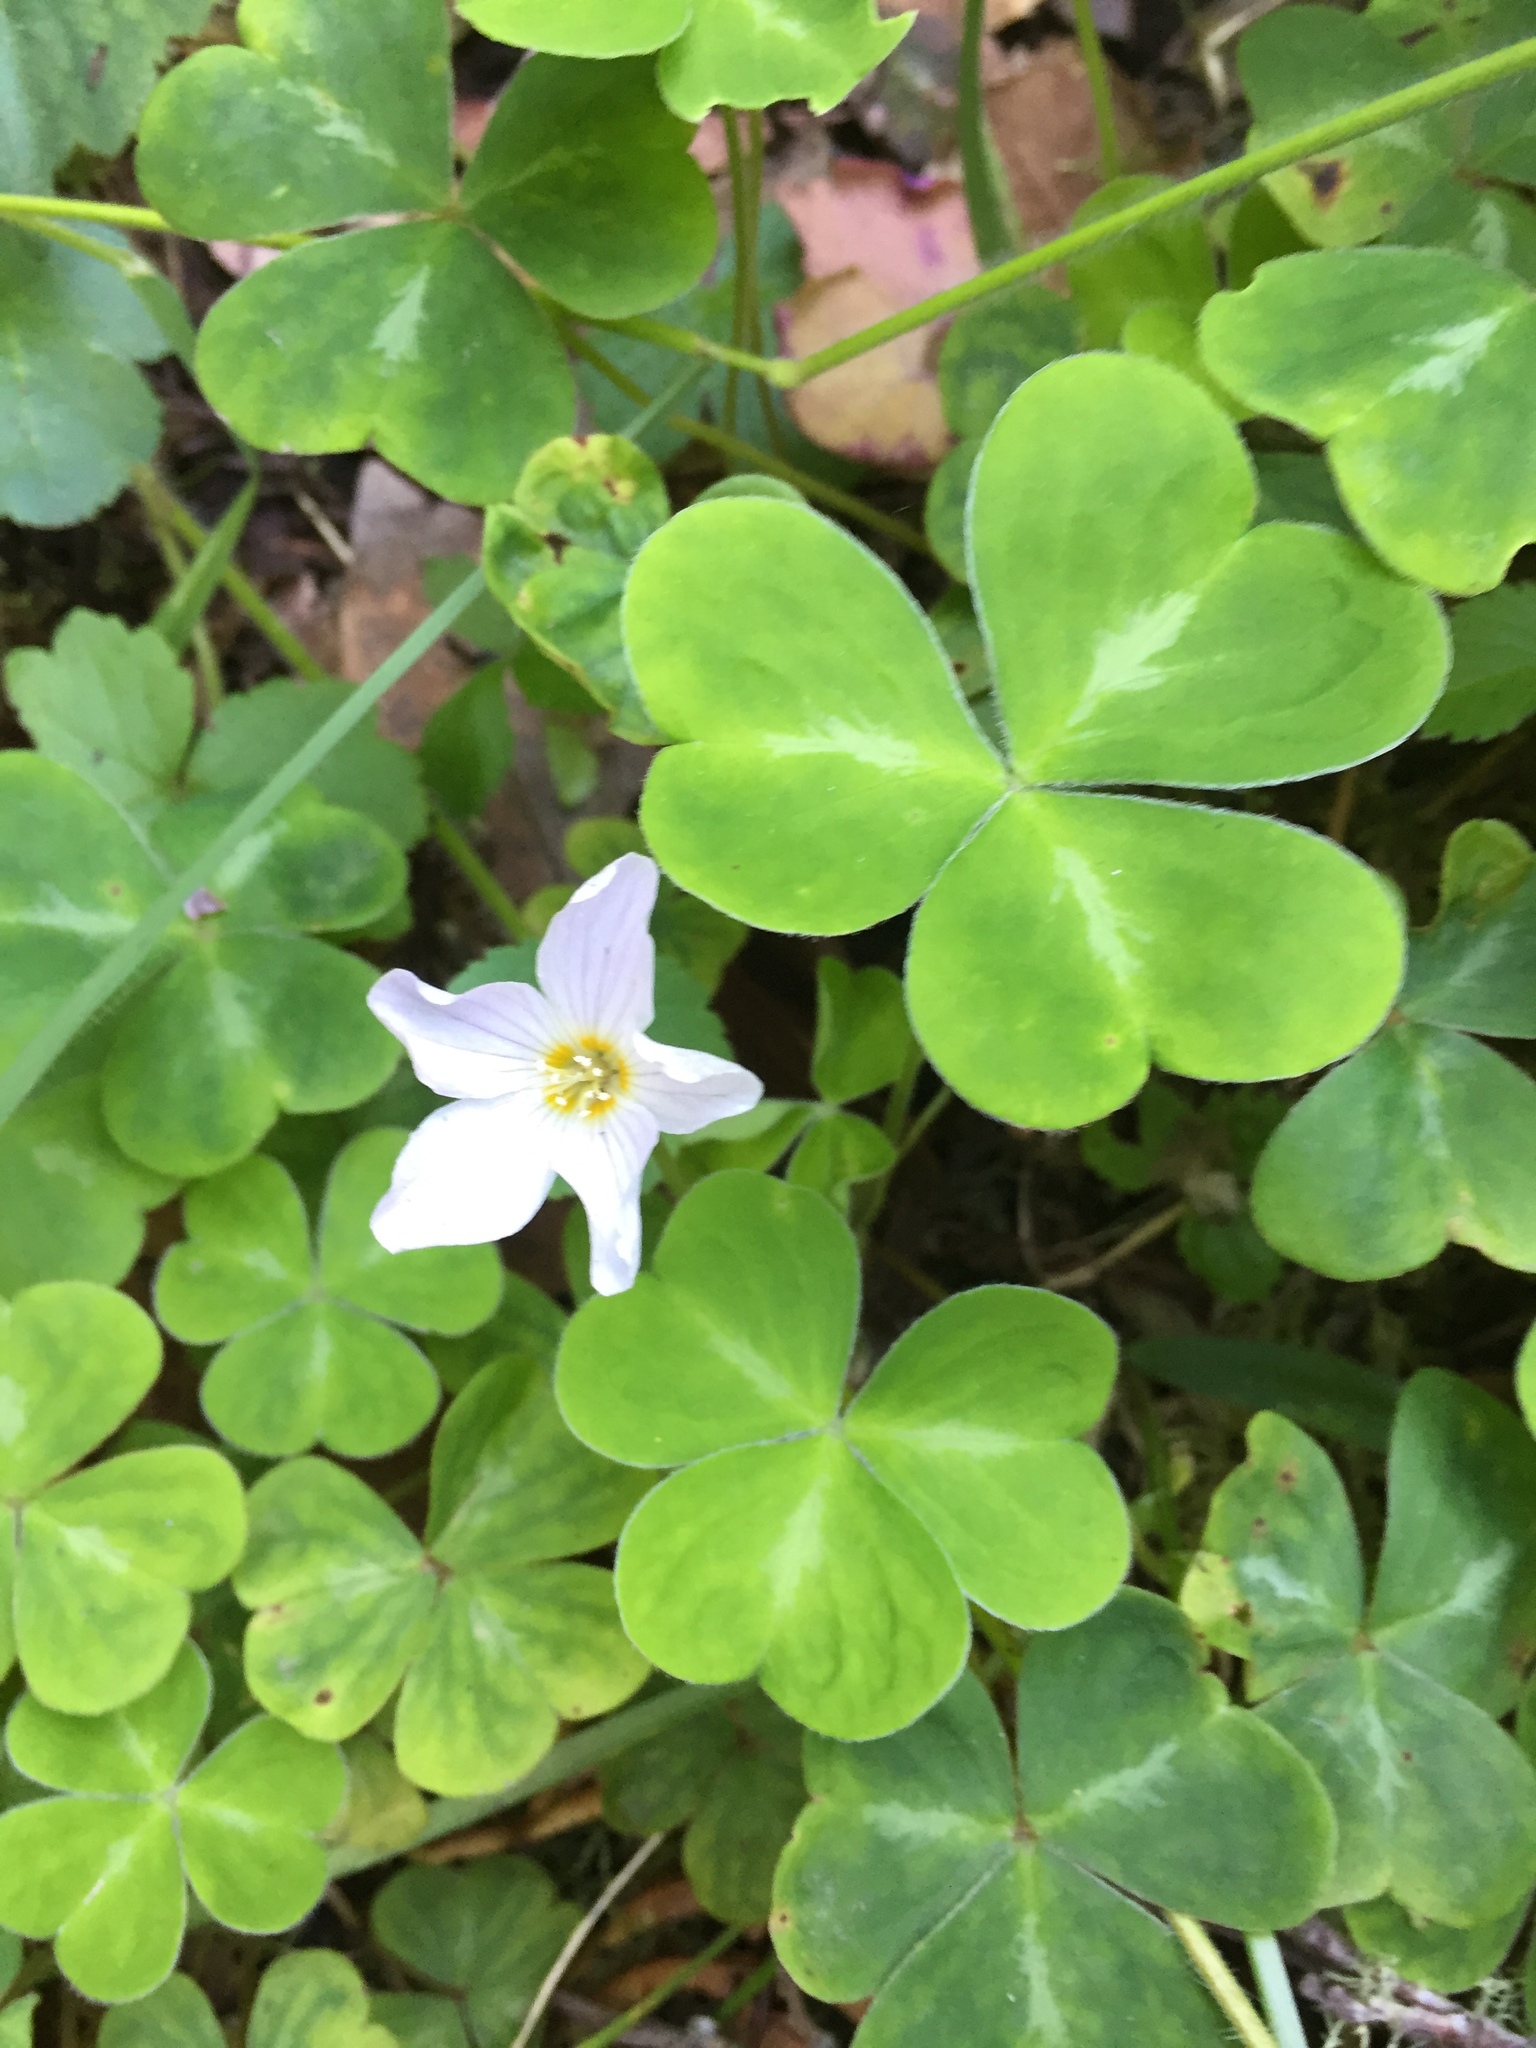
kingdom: Plantae
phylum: Tracheophyta
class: Magnoliopsida
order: Oxalidales
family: Oxalidaceae
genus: Oxalis
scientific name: Oxalis oregana
